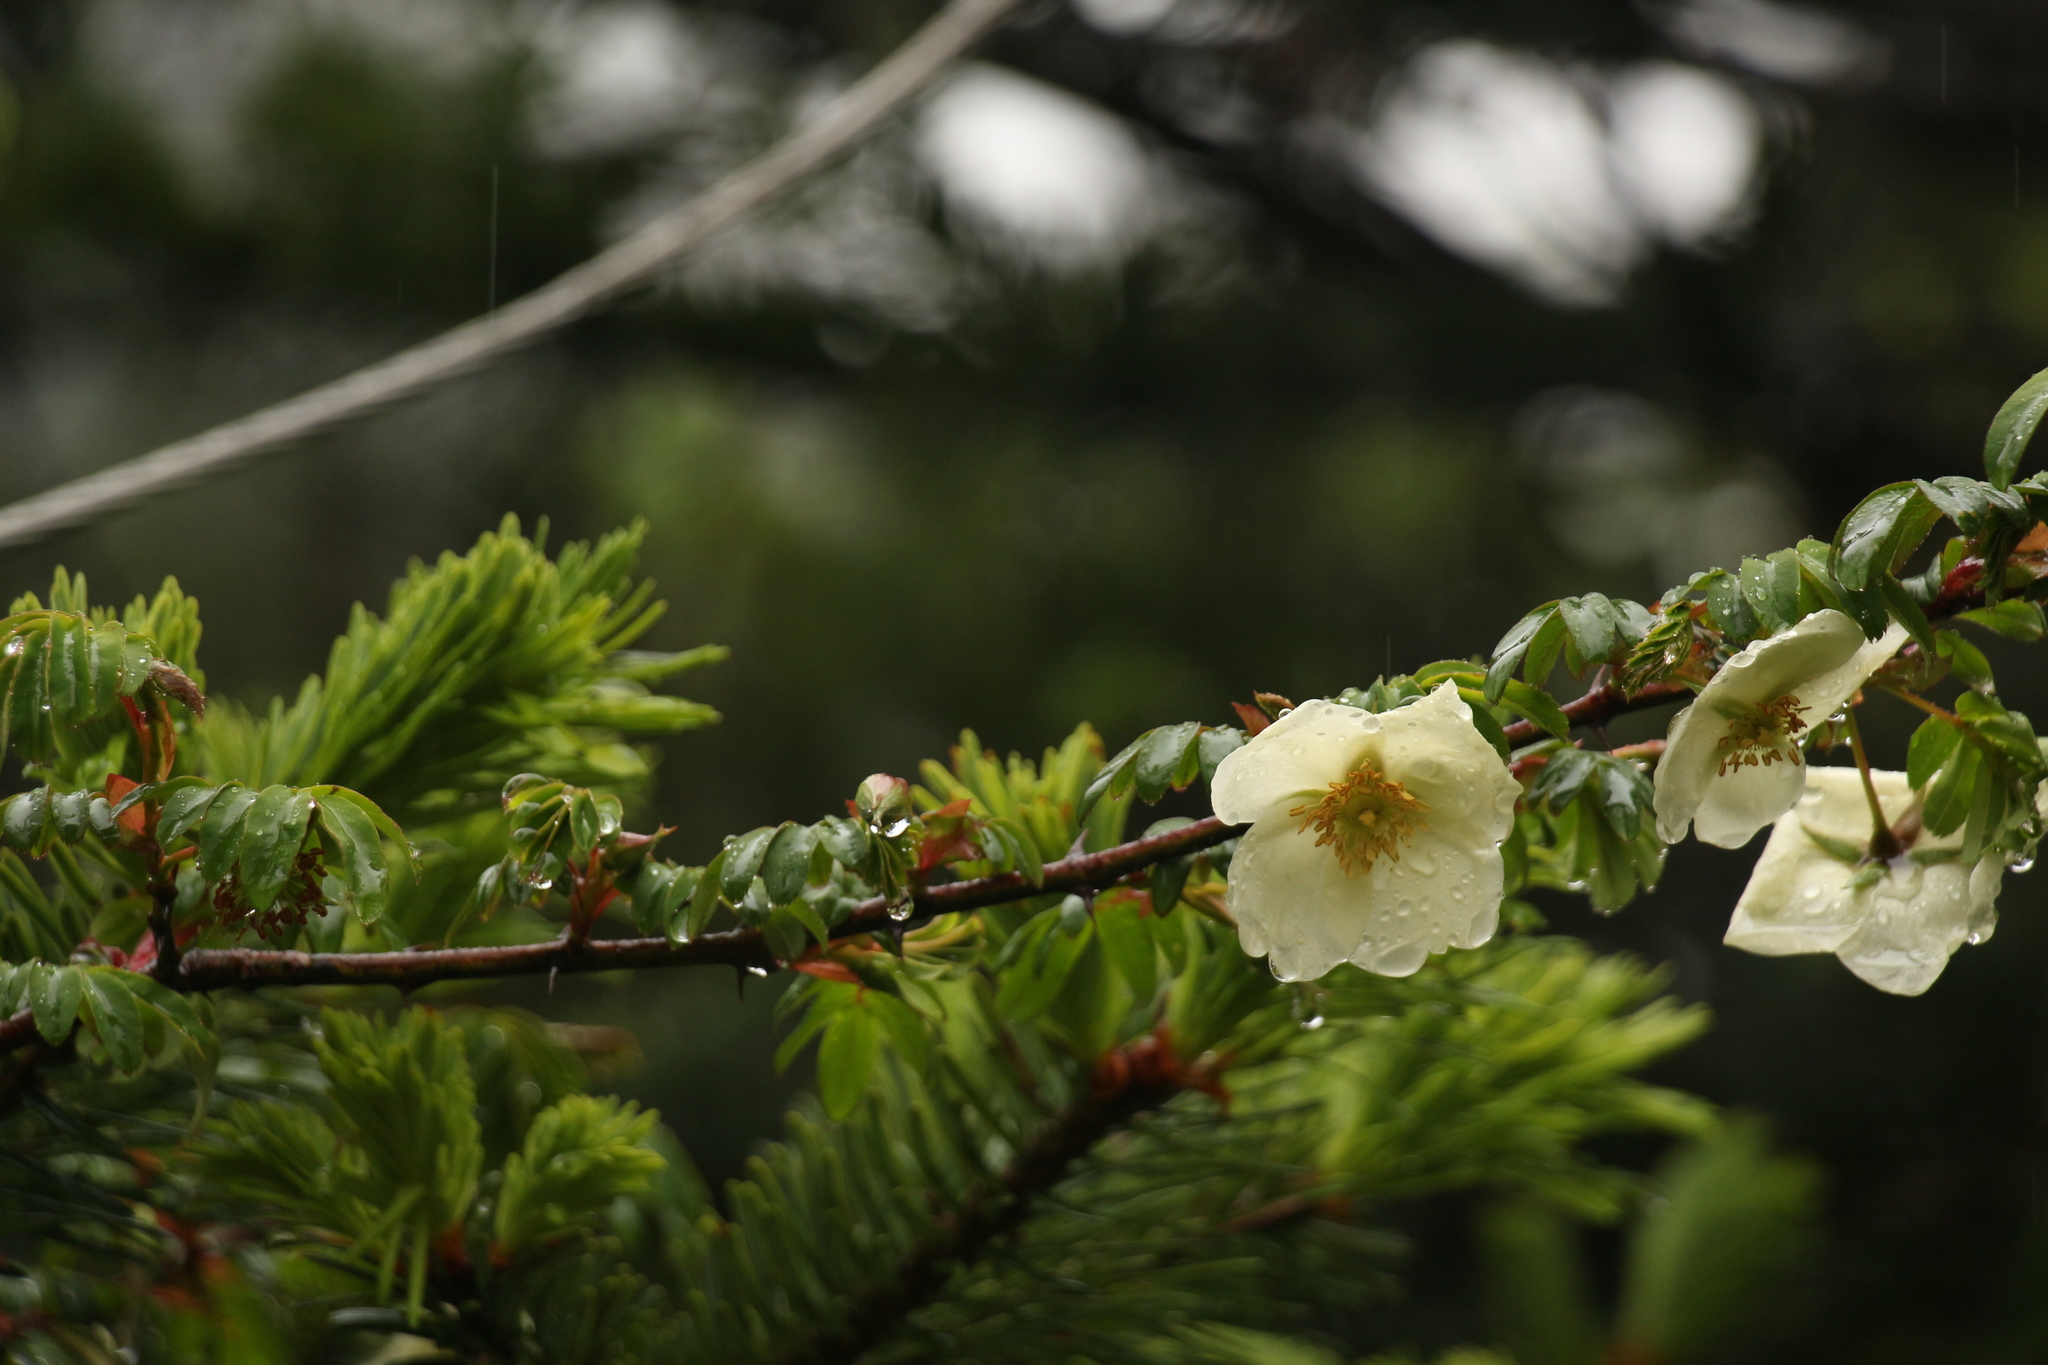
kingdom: Plantae
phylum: Tracheophyta
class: Magnoliopsida
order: Rosales
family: Rosaceae
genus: Rosa
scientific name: Rosa sericea
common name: Silky rose
